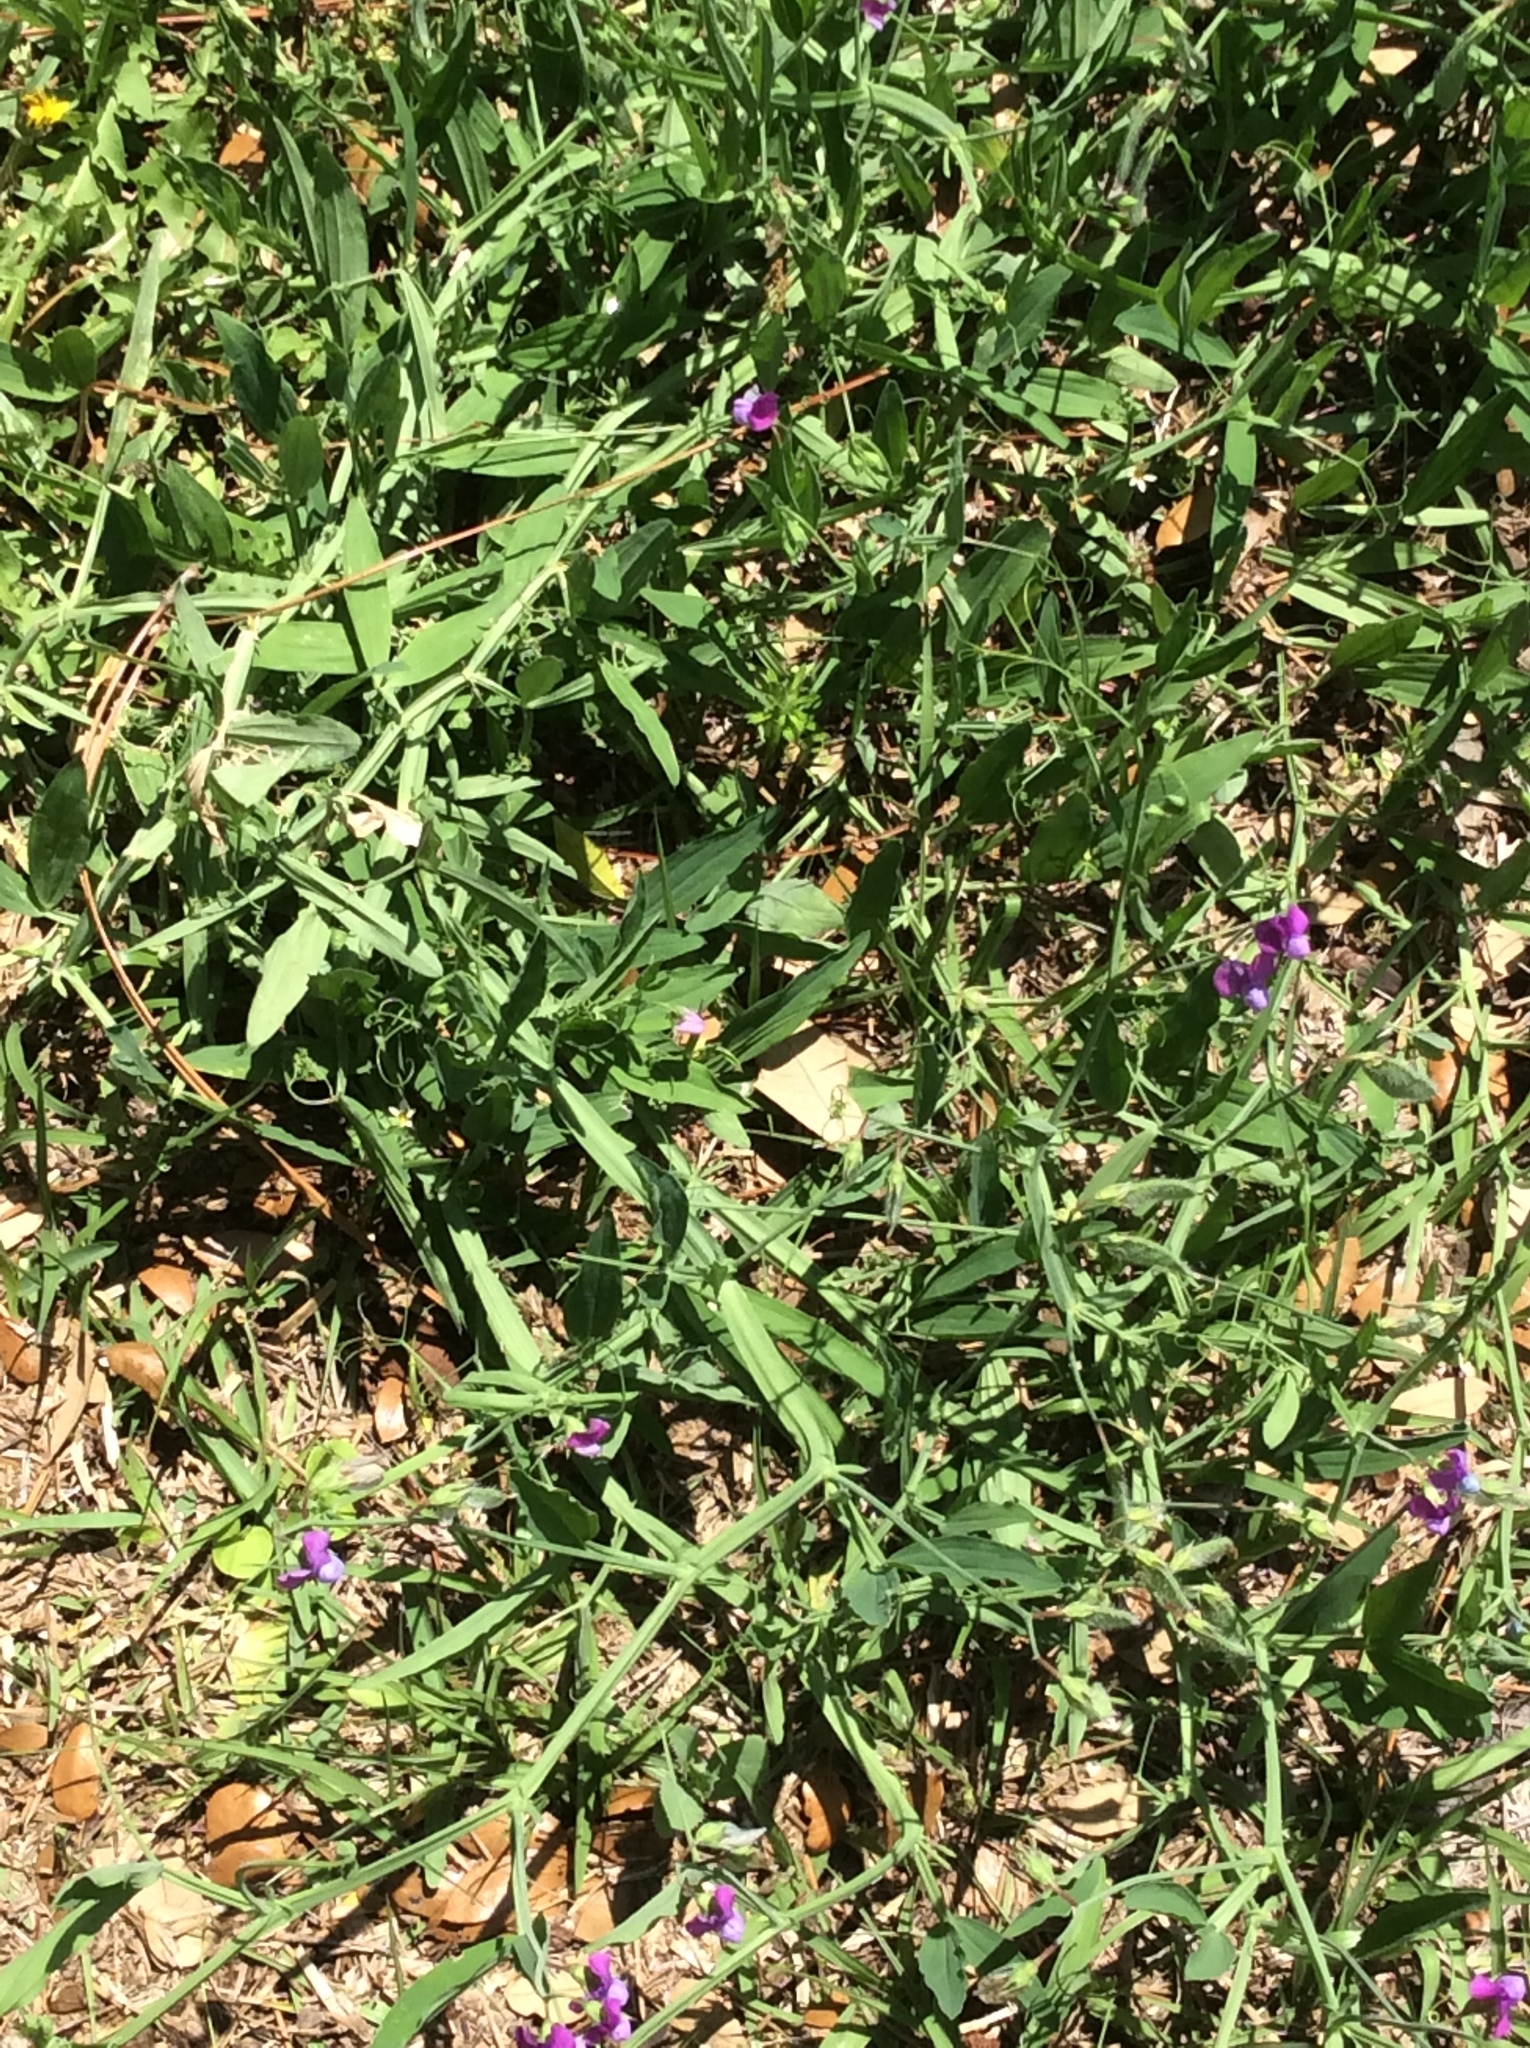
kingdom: Plantae
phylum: Tracheophyta
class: Magnoliopsida
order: Fabales
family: Fabaceae
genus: Lathyrus
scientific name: Lathyrus hirsutus
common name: Hairy vetchling
